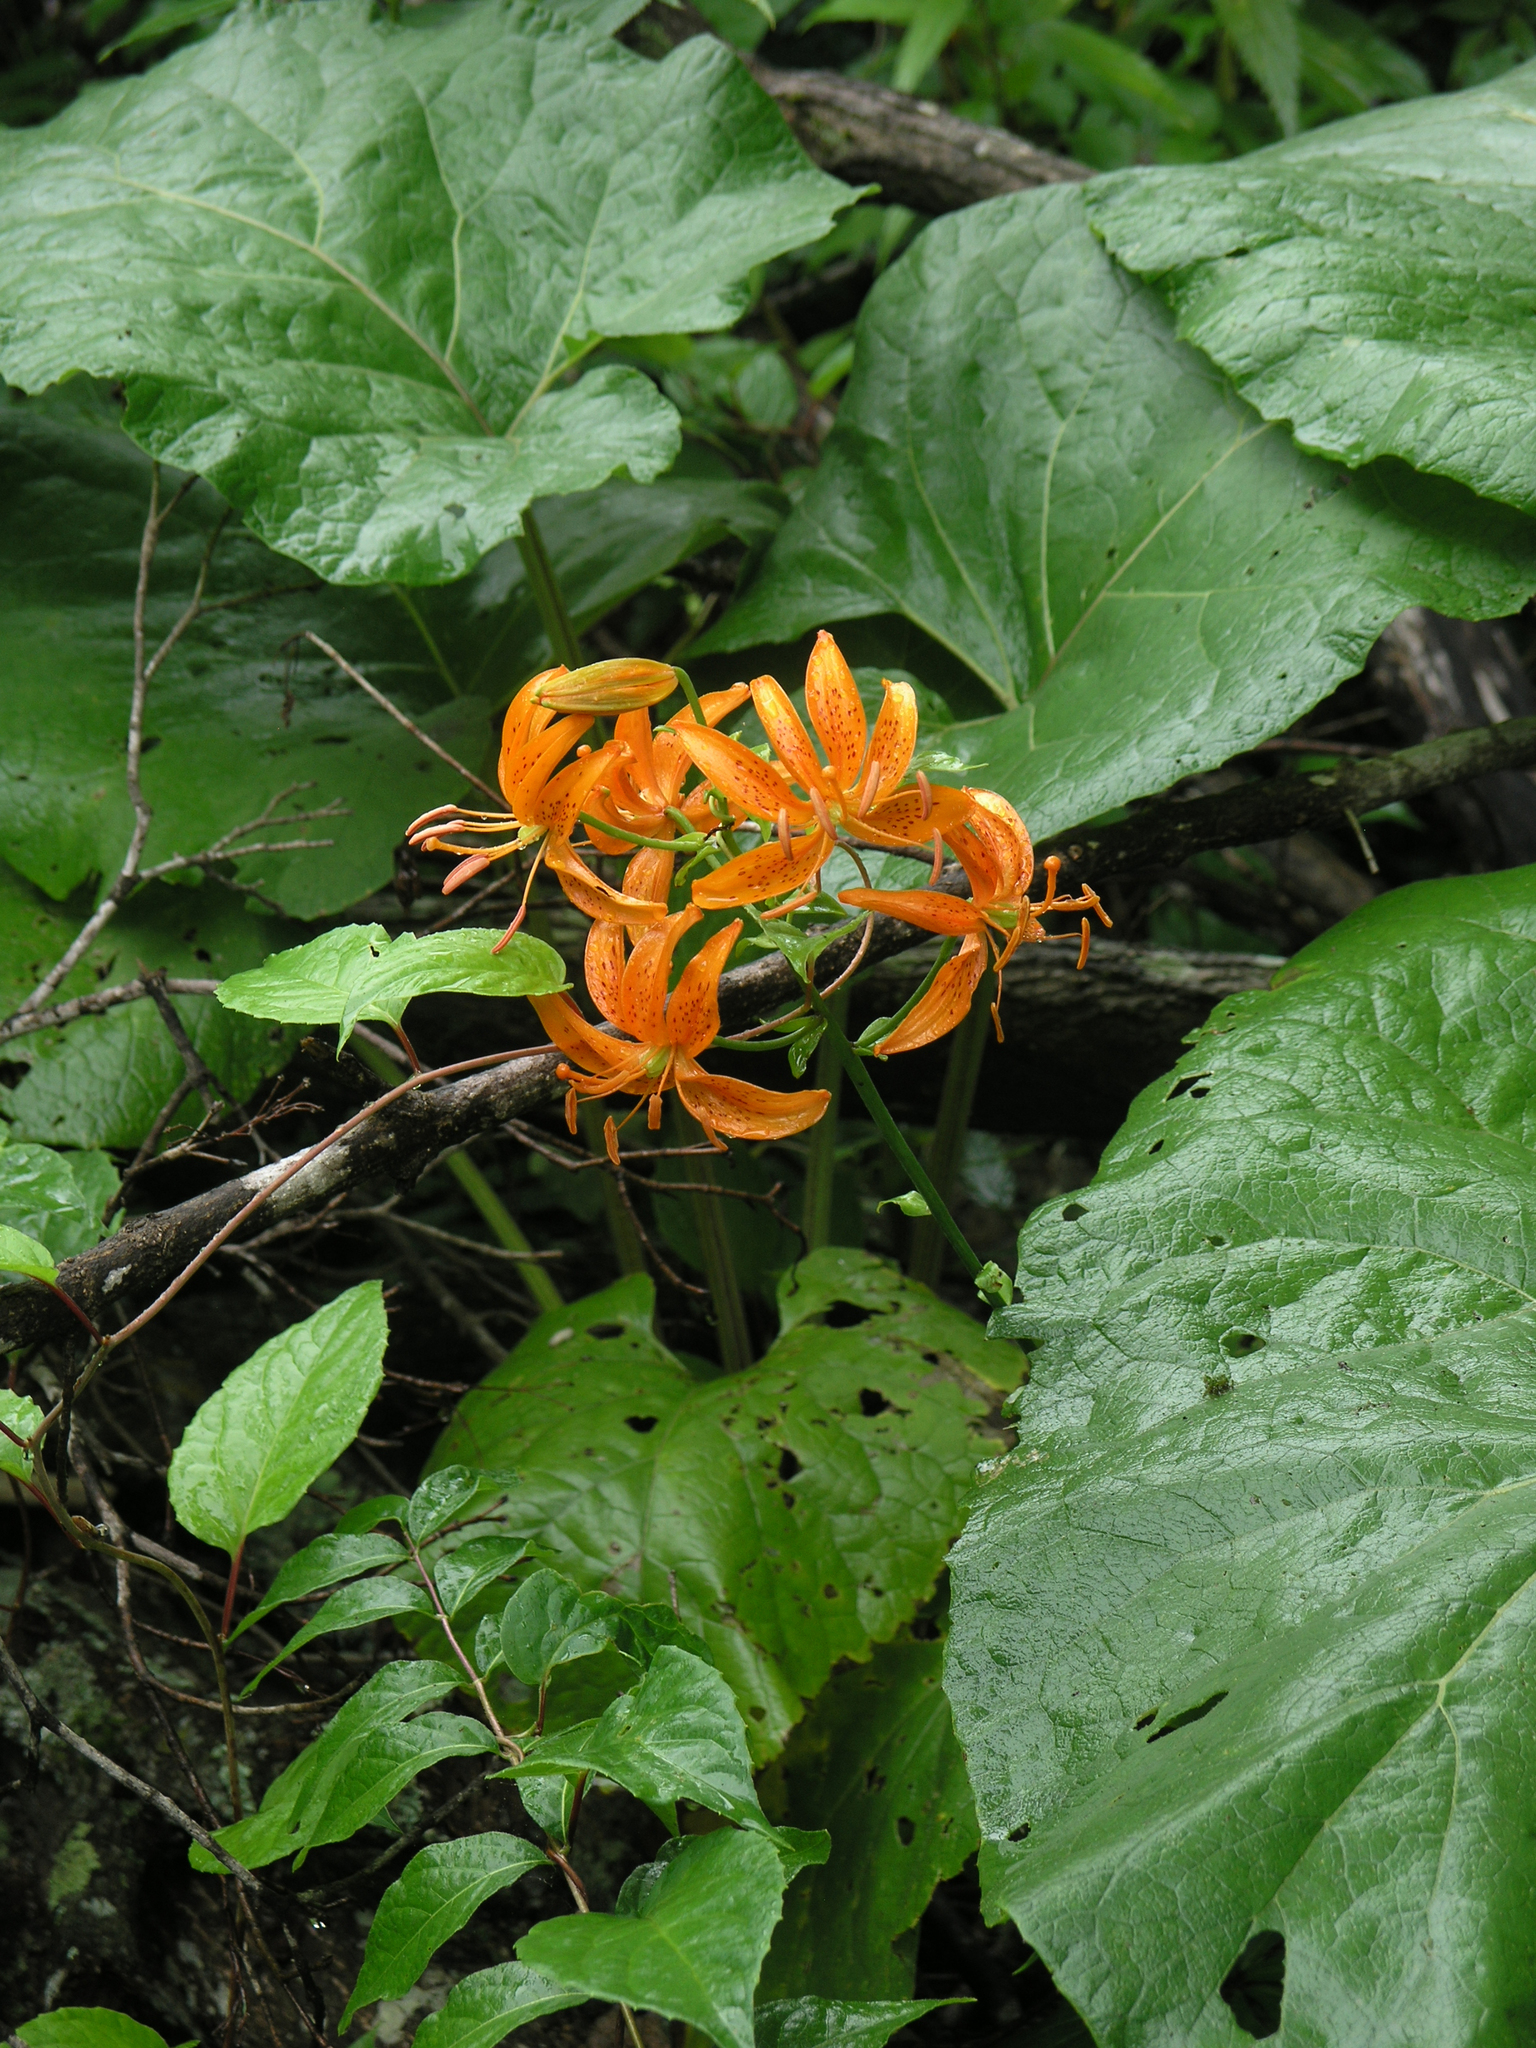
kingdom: Plantae
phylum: Tracheophyta
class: Liliopsida
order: Liliales
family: Liliaceae
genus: Lilium
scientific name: Lilium distichum
